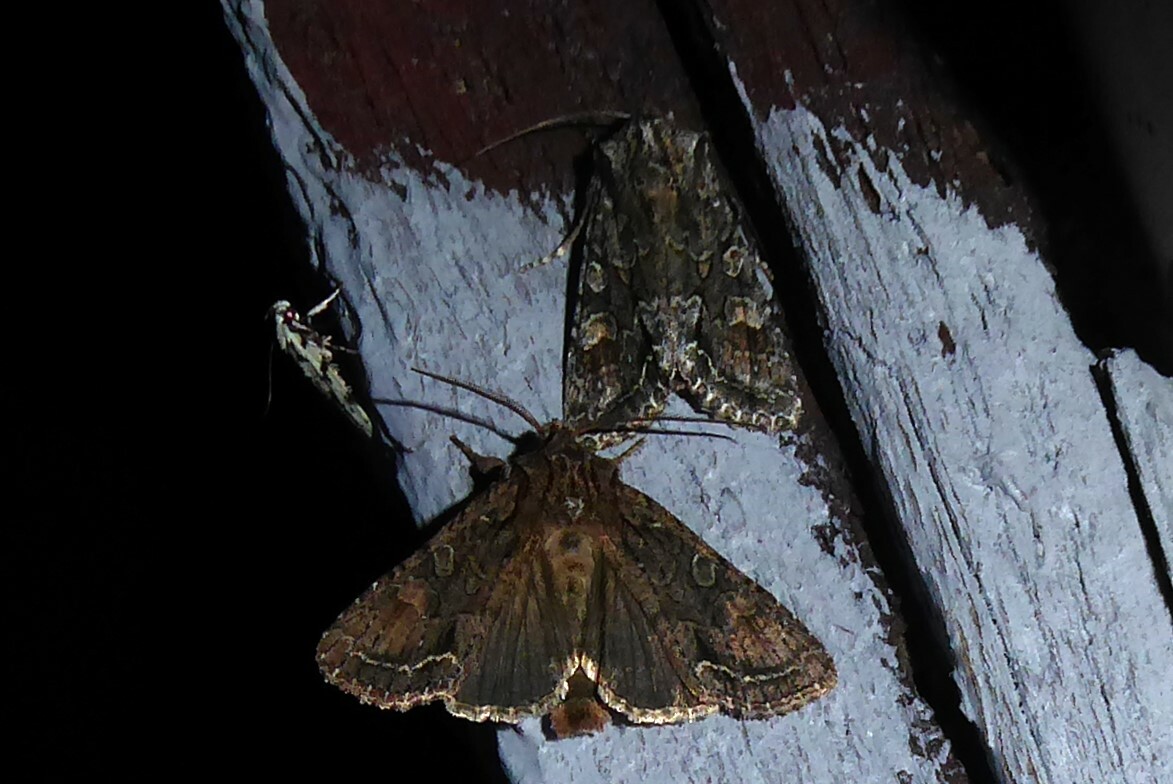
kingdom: Animalia
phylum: Arthropoda
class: Insecta
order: Lepidoptera
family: Noctuidae
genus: Ichneutica
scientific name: Ichneutica mutans
